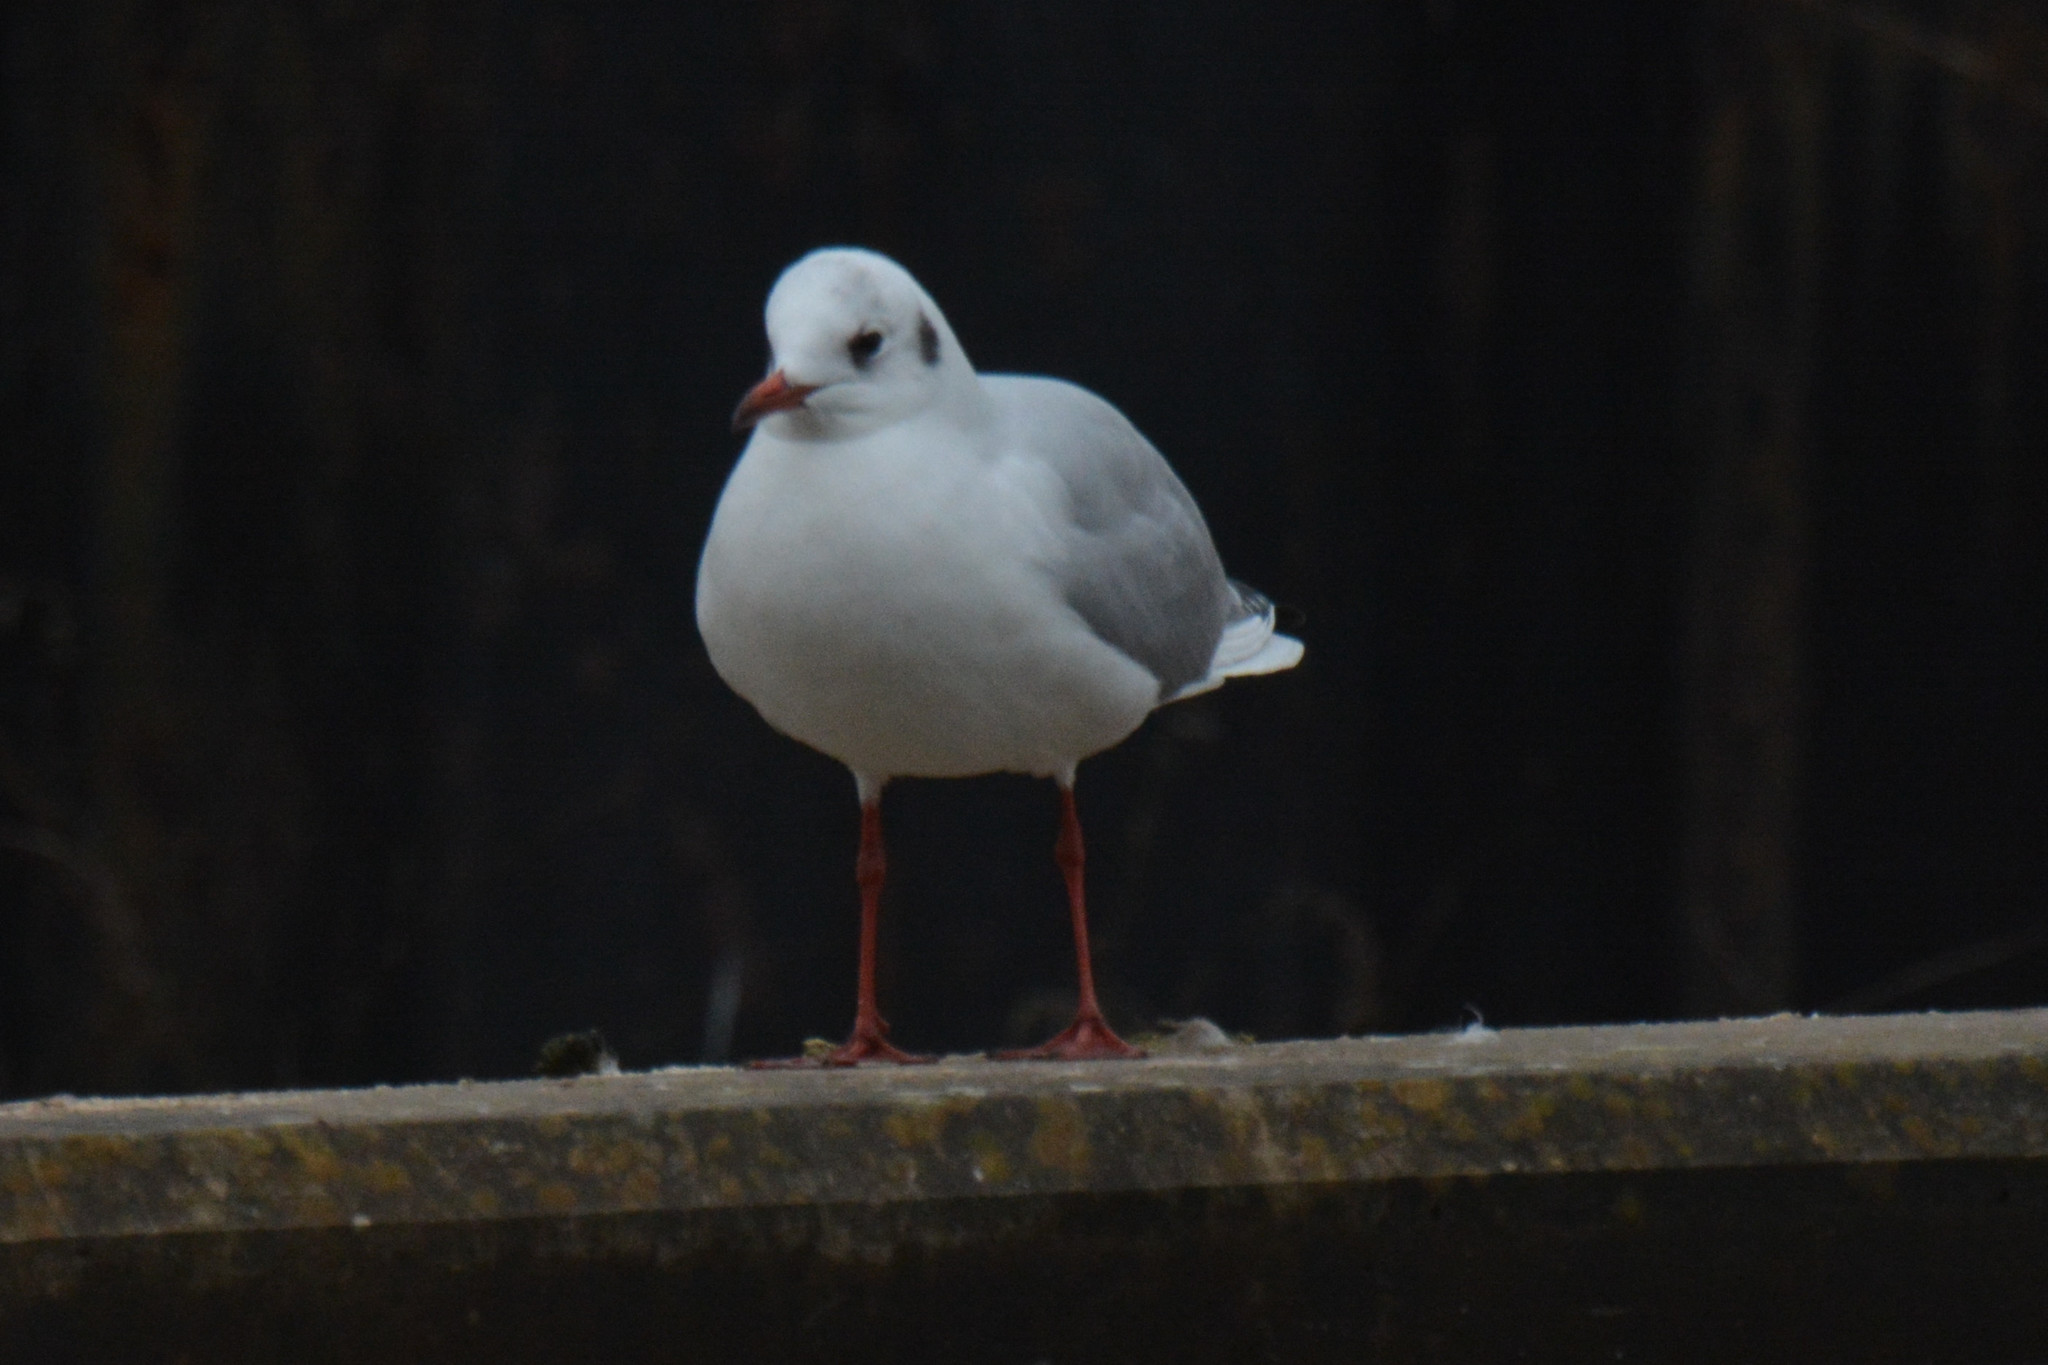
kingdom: Animalia
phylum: Chordata
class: Aves
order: Charadriiformes
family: Laridae
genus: Chroicocephalus
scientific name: Chroicocephalus ridibundus
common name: Black-headed gull
